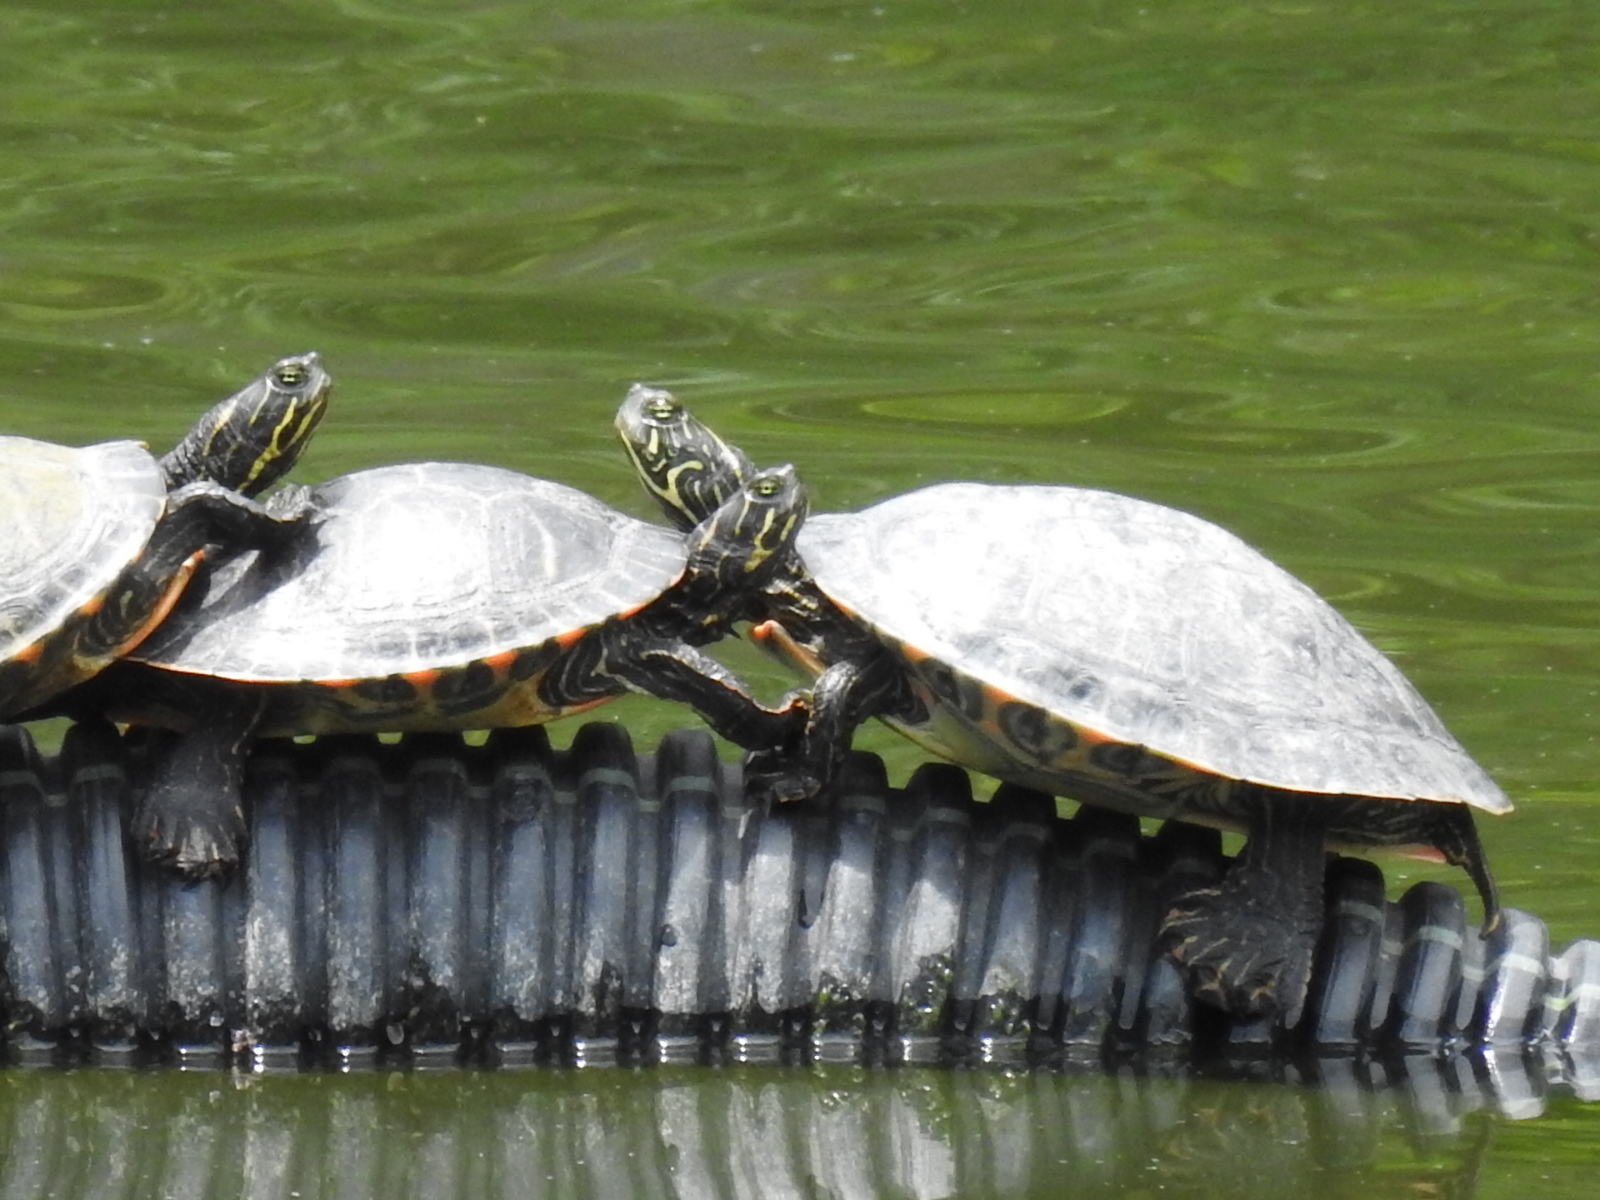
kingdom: Animalia
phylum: Chordata
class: Testudines
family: Emydidae
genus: Pseudemys
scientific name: Pseudemys concinna
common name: Eastern river cooter
